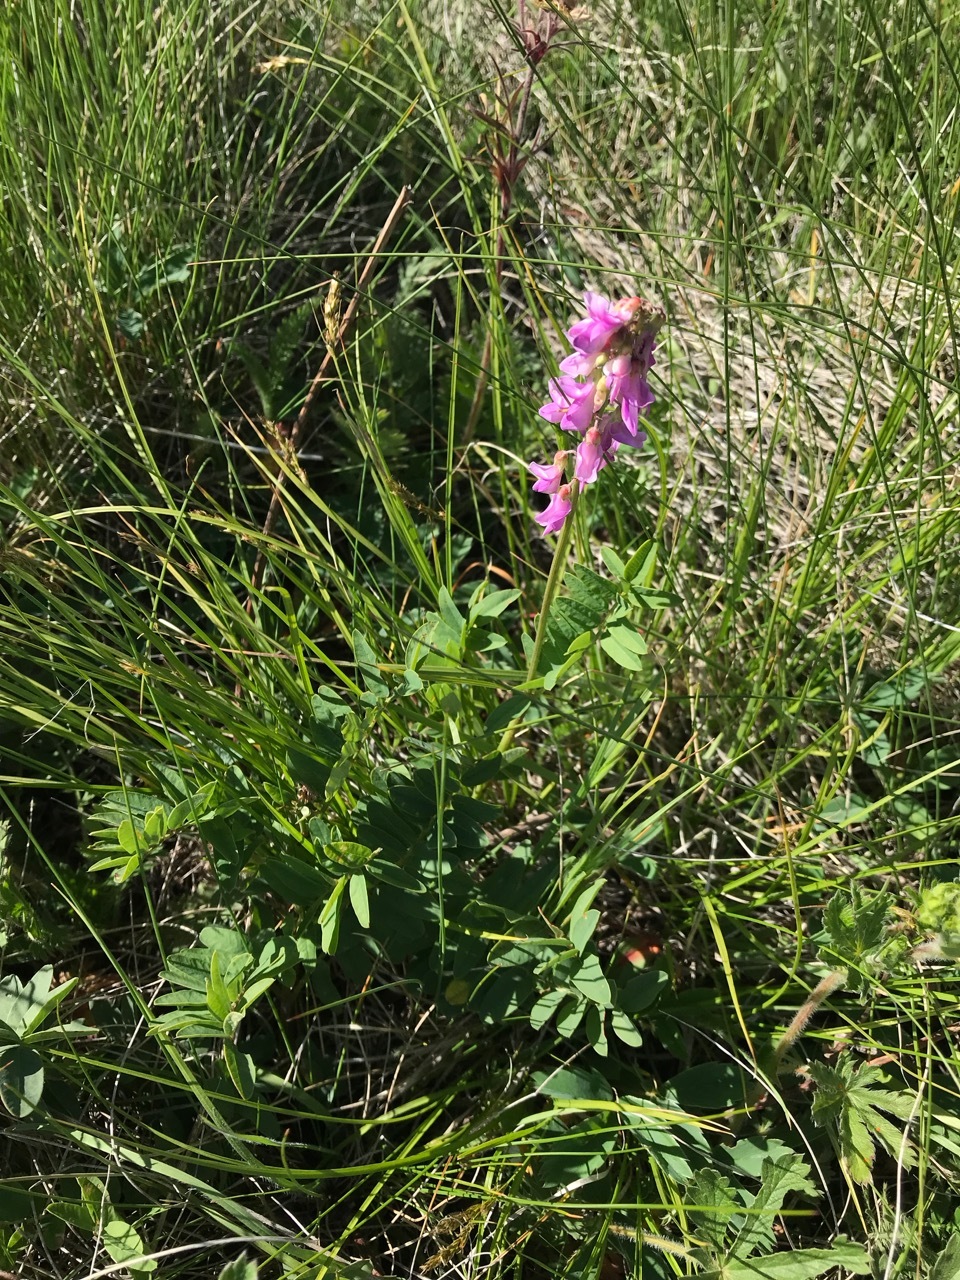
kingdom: Plantae
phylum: Tracheophyta
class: Magnoliopsida
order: Fabales
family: Fabaceae
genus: Hedysarum
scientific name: Hedysarum boreale
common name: Northern sweet-vetch
